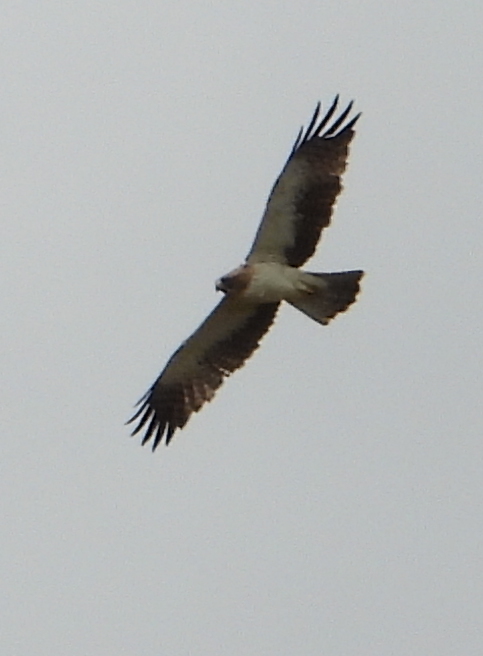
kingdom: Animalia
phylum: Chordata
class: Aves
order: Accipitriformes
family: Accipitridae
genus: Hieraaetus
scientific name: Hieraaetus pennatus
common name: Booted eagle
